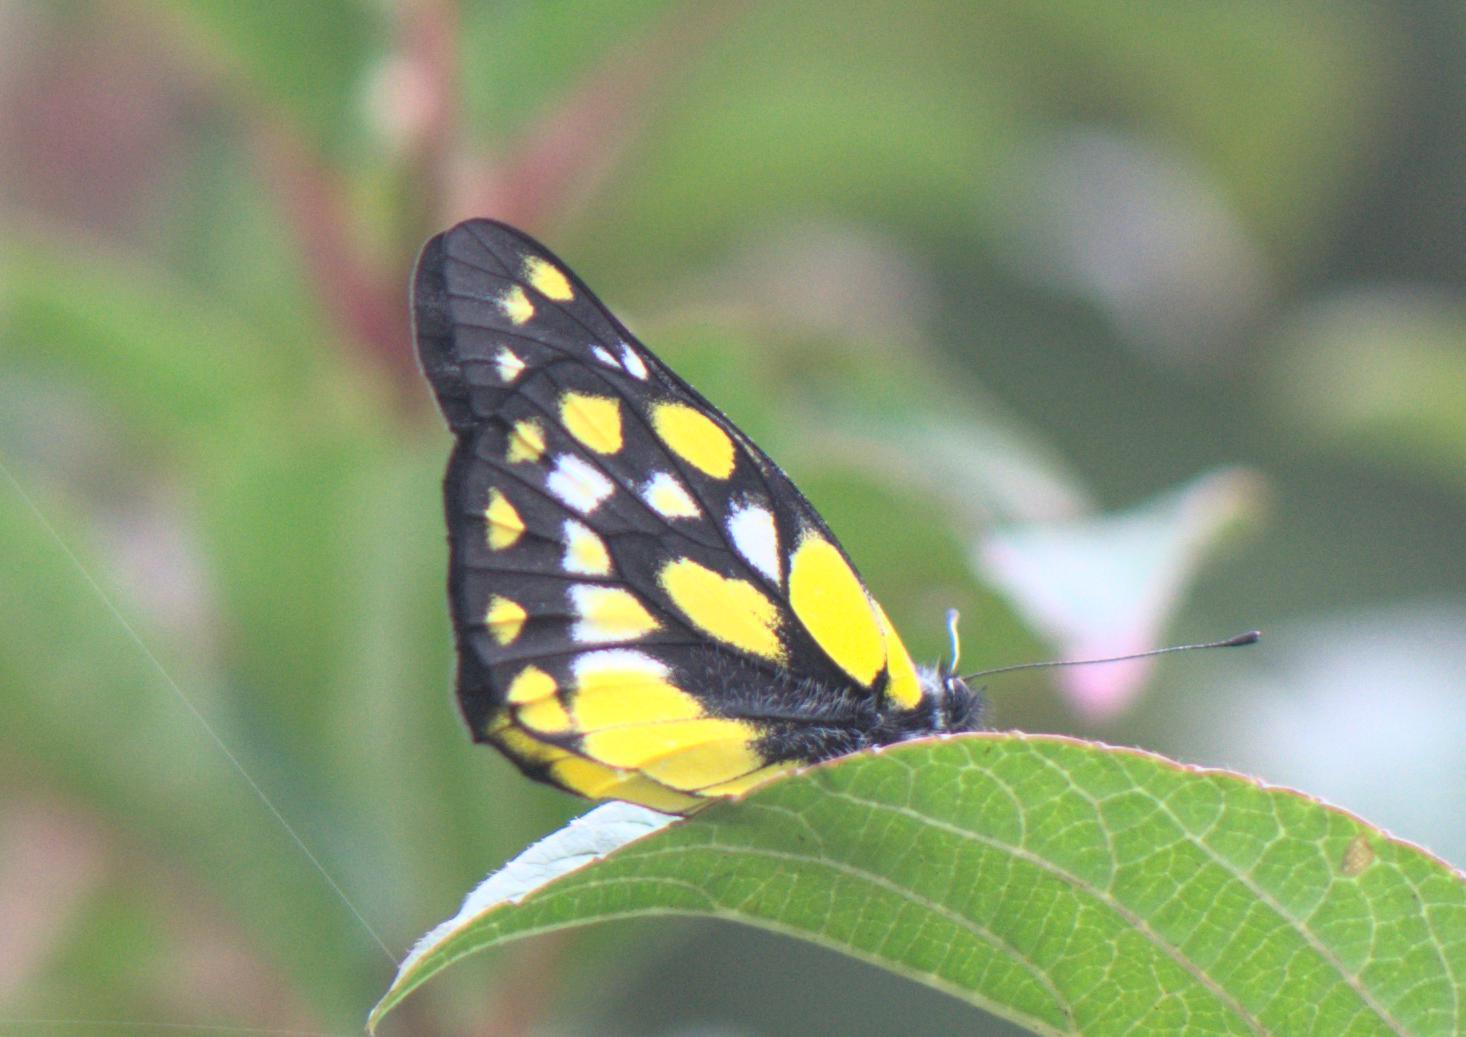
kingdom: Animalia
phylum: Arthropoda
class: Insecta
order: Lepidoptera
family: Pieridae
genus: Delias
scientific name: Delias belladonna
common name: Hill jezebel
